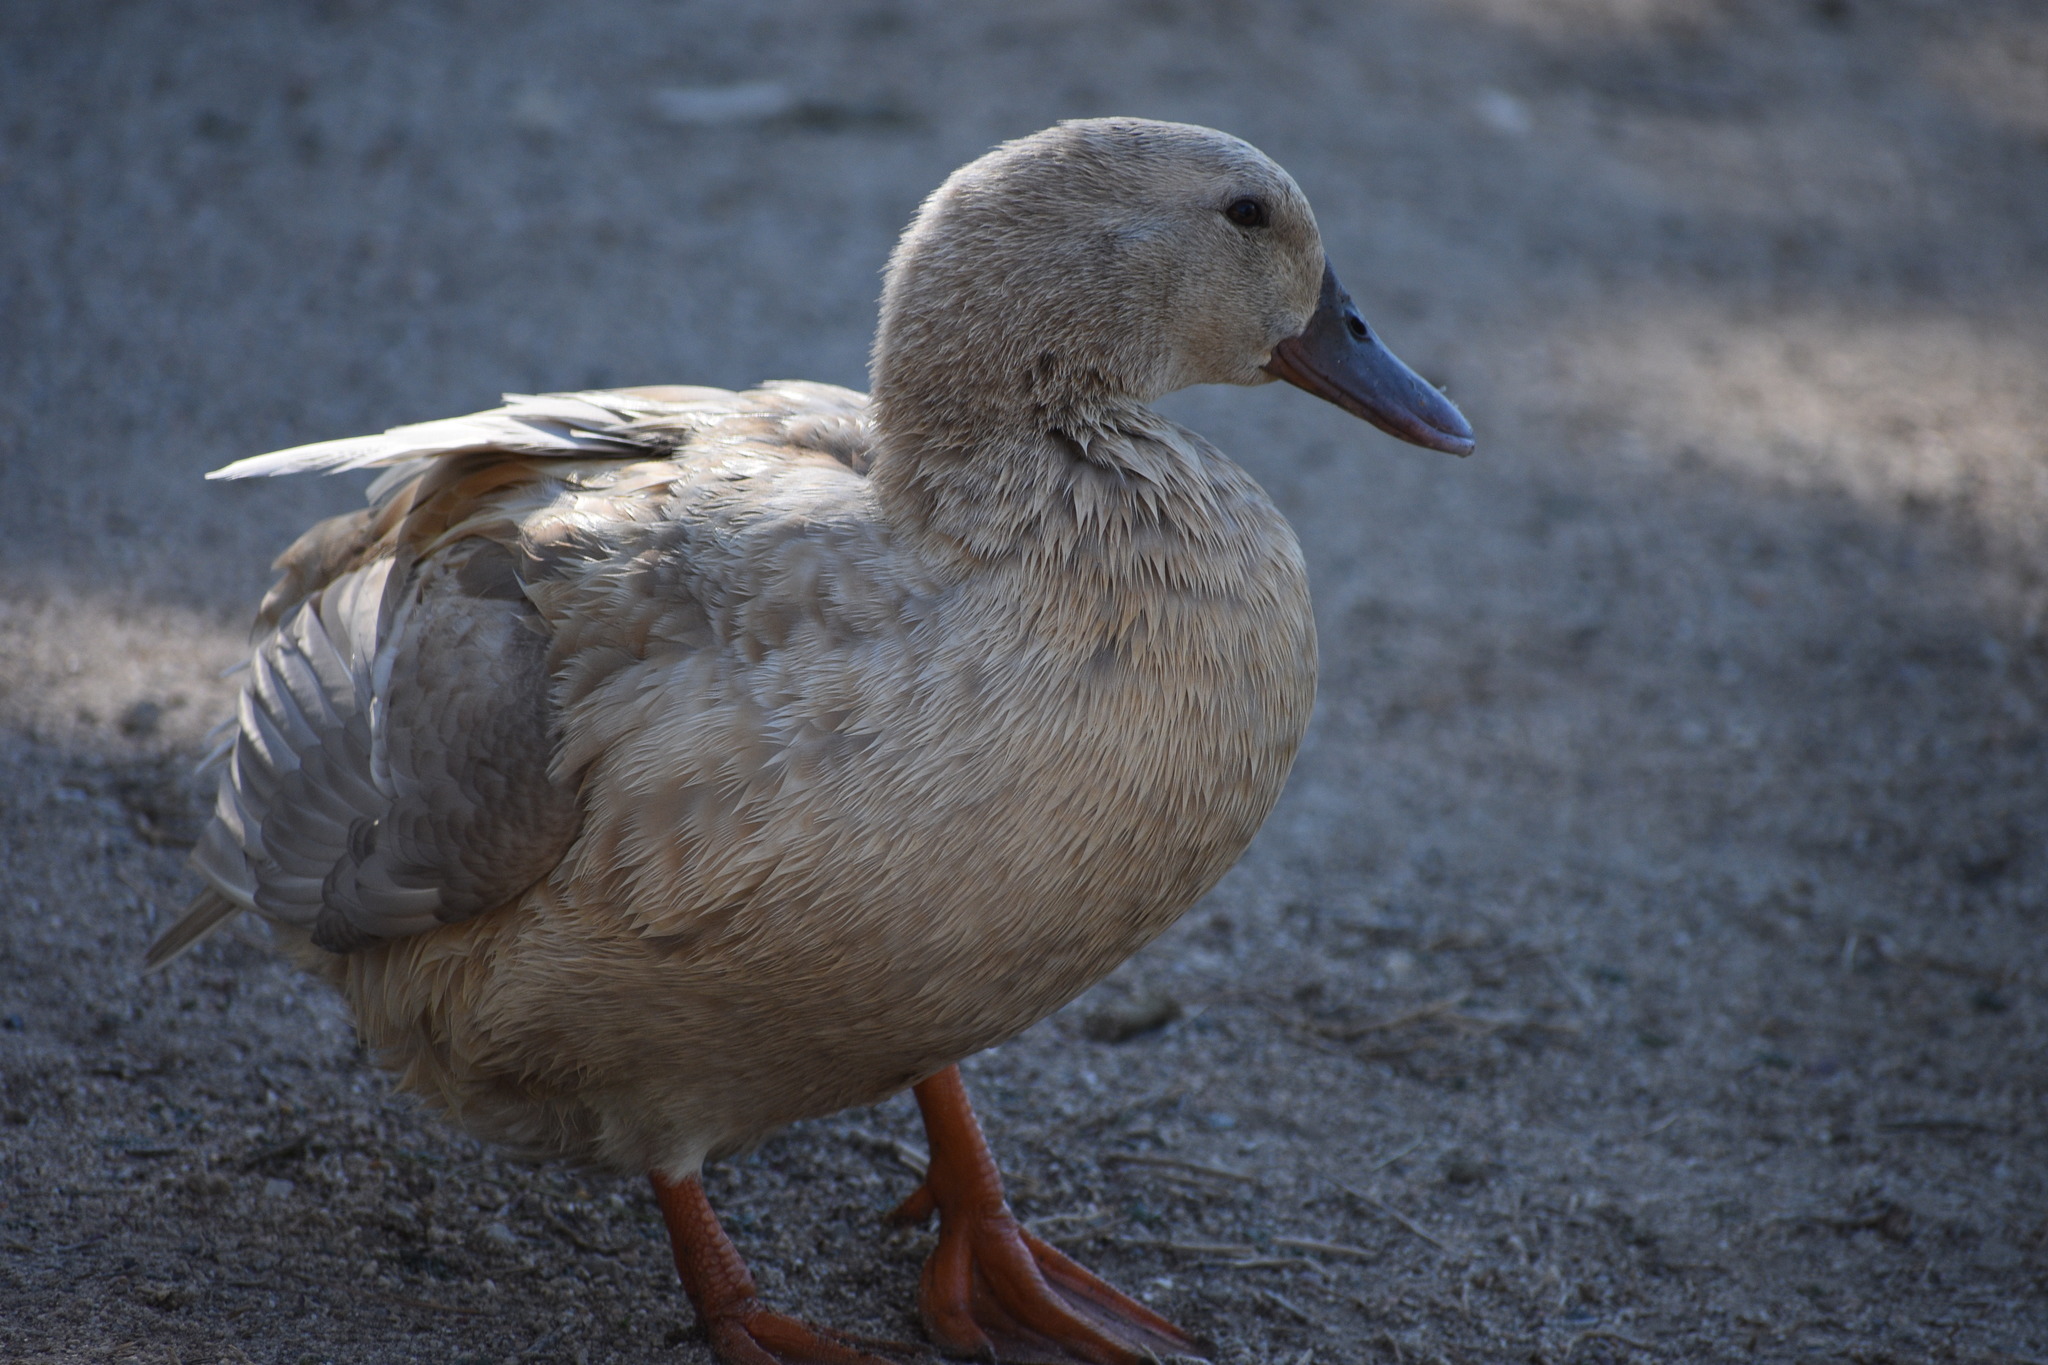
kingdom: Animalia
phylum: Chordata
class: Aves
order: Anseriformes
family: Anatidae
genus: Anas
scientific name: Anas platyrhynchos
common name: Mallard
